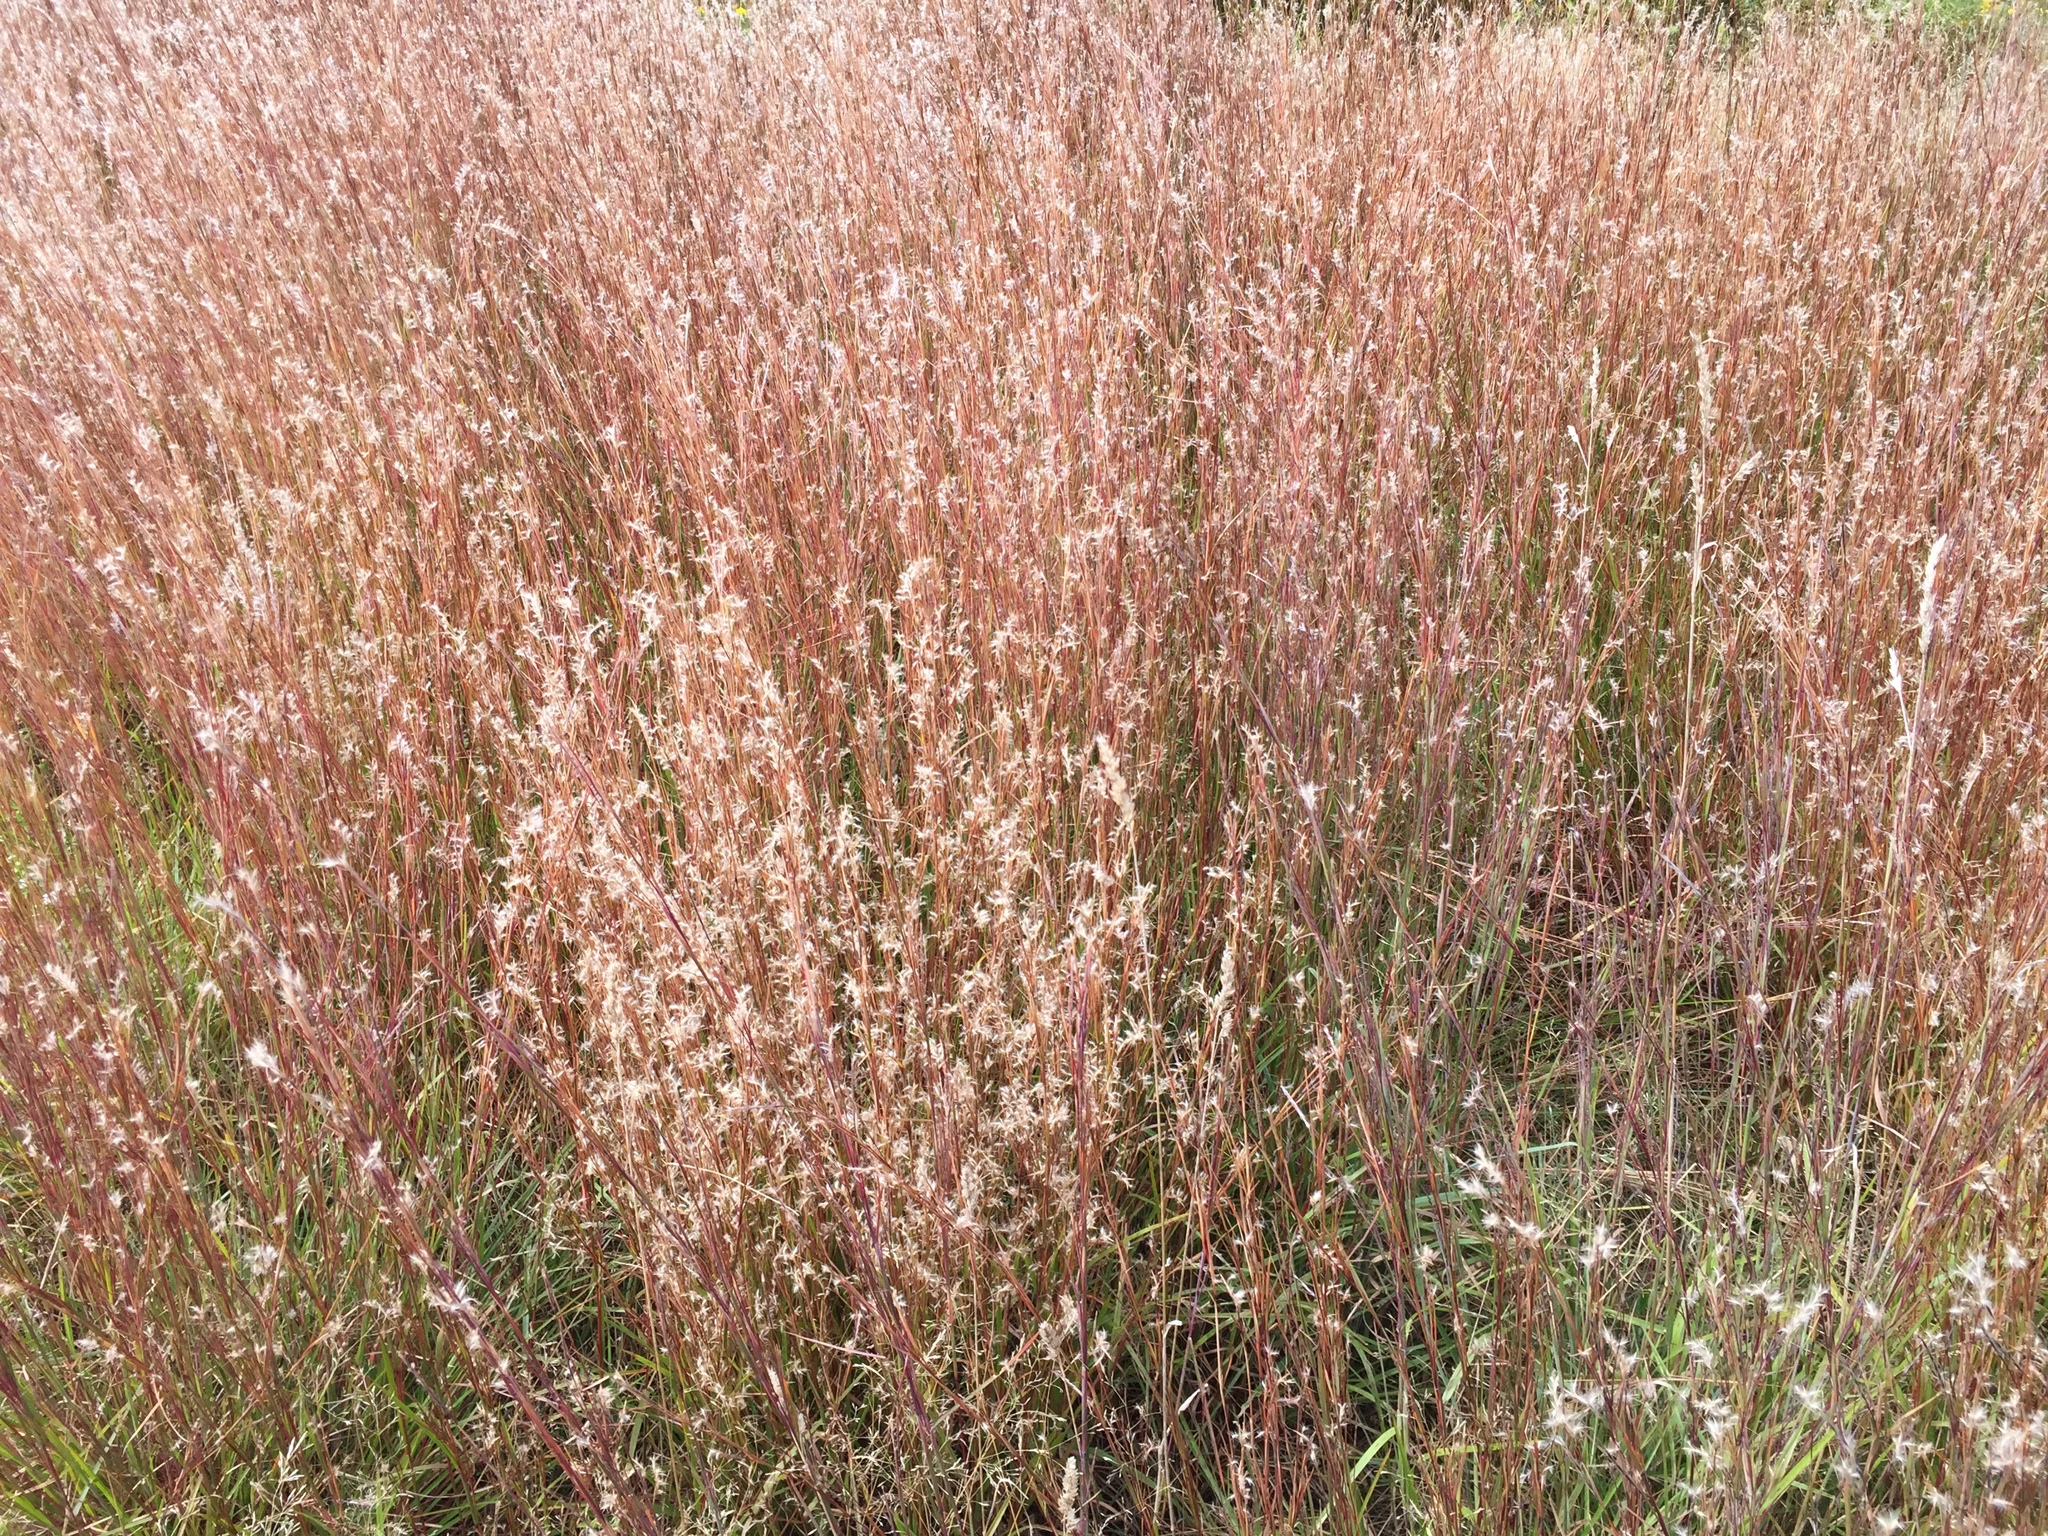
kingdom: Plantae
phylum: Tracheophyta
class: Liliopsida
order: Poales
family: Poaceae
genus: Schizachyrium
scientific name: Schizachyrium scoparium
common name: Little bluestem
